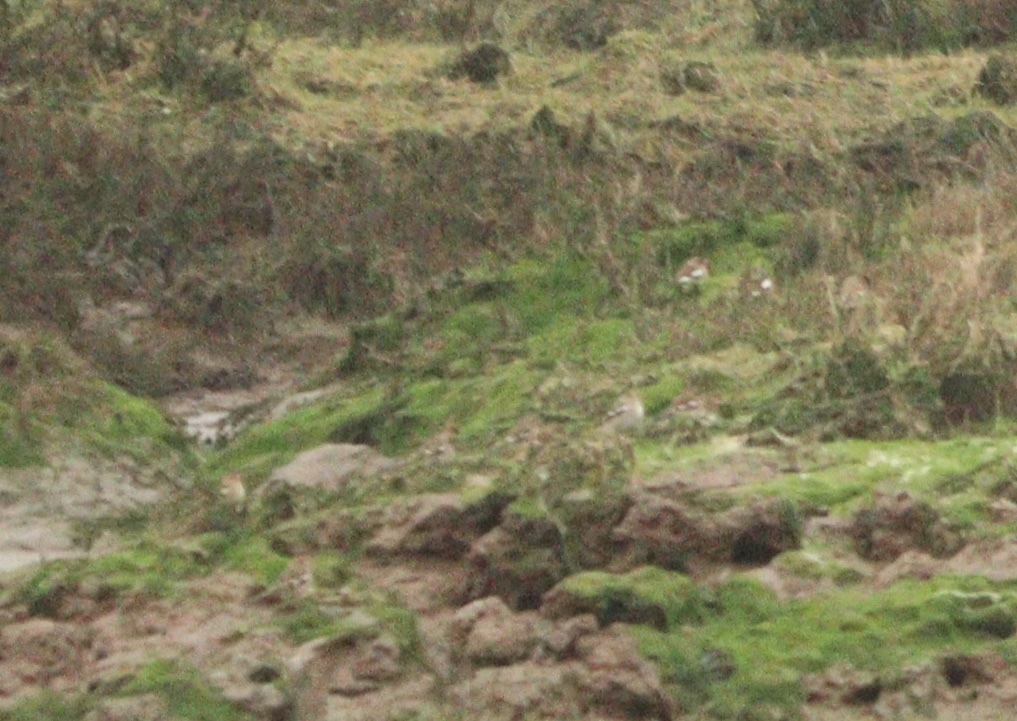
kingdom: Animalia
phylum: Chordata
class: Aves
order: Passeriformes
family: Fringillidae
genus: Fringilla
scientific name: Fringilla coelebs
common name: Common chaffinch
